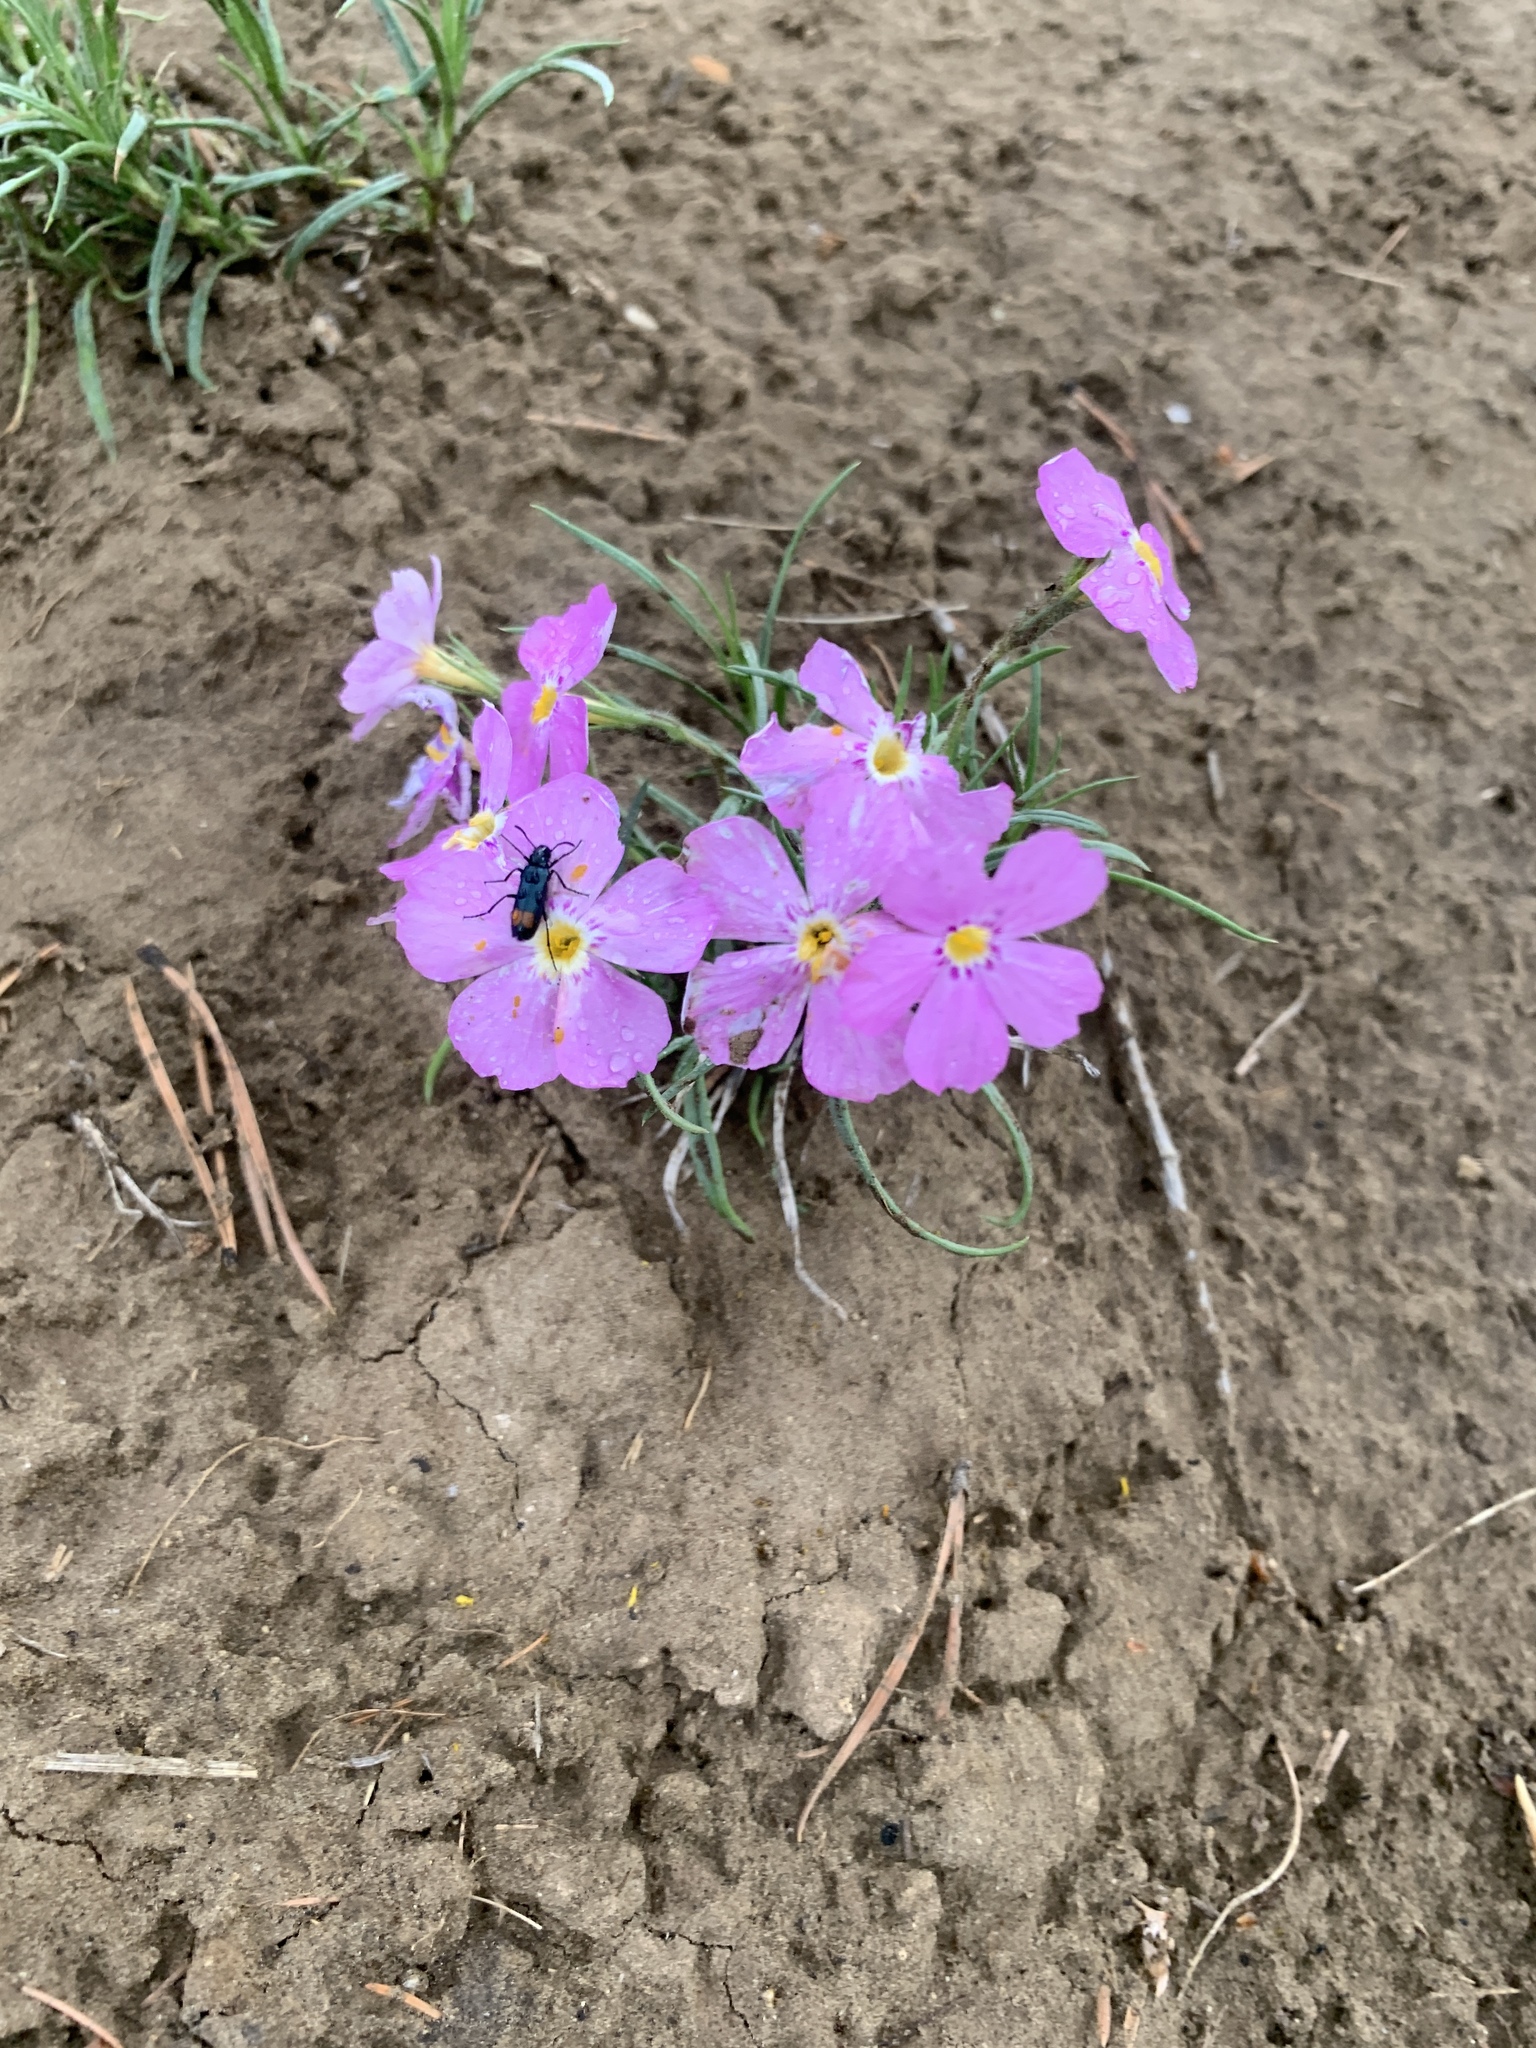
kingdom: Plantae
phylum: Tracheophyta
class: Magnoliopsida
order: Ericales
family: Polemoniaceae
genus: Phlox
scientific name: Phlox sibirica
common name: Siberian phlox
